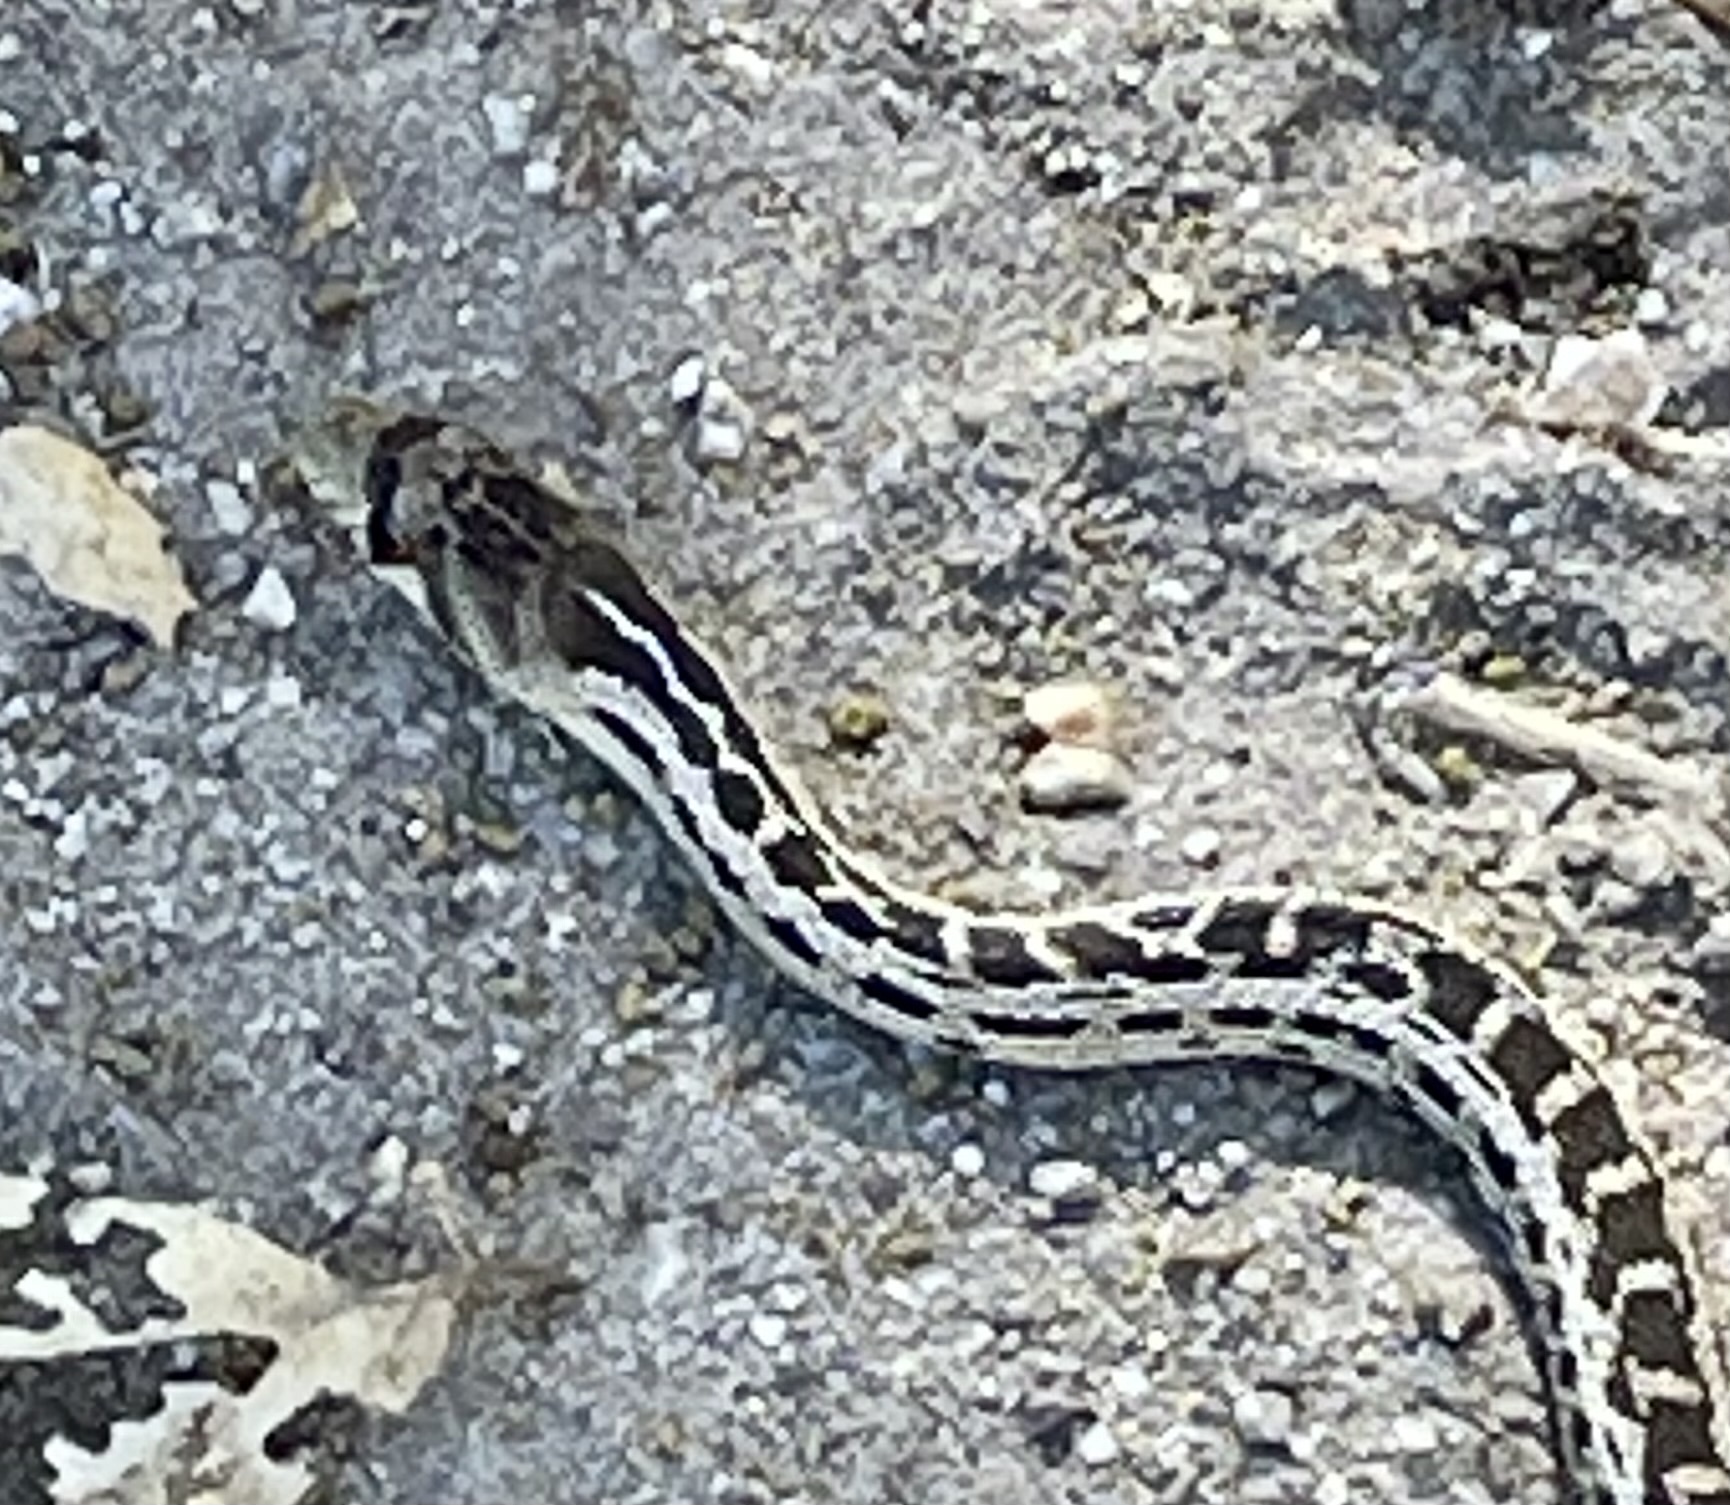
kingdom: Animalia
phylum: Chordata
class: Squamata
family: Colubridae
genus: Pituophis
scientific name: Pituophis catenifer
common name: Gopher snake
